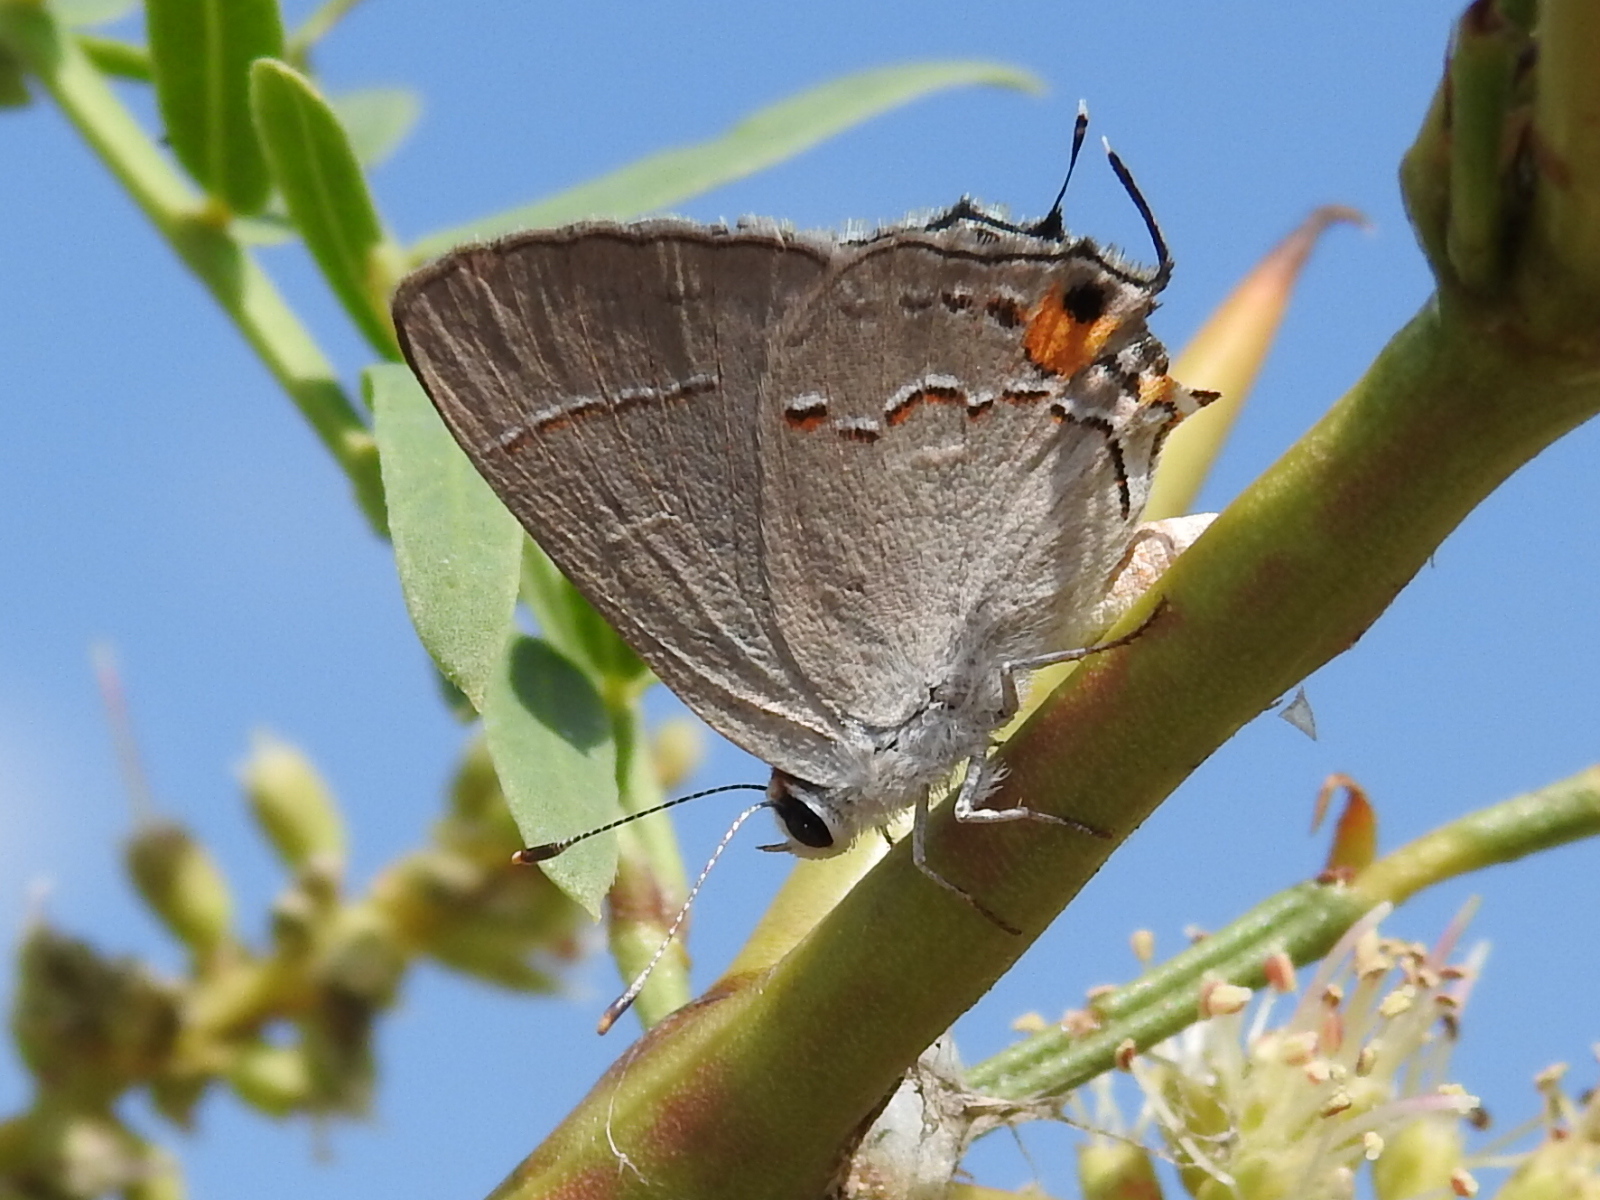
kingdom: Animalia
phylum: Arthropoda
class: Insecta
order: Lepidoptera
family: Lycaenidae
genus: Strymon
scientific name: Strymon melinus
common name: Gray hairstreak
